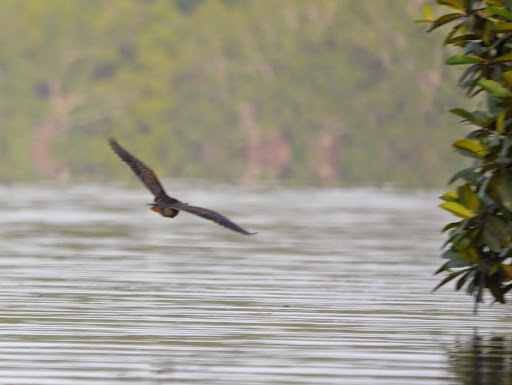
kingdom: Animalia
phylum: Chordata
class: Aves
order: Pelecaniformes
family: Ardeidae
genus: Butorides
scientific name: Butorides striata
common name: Striated heron
